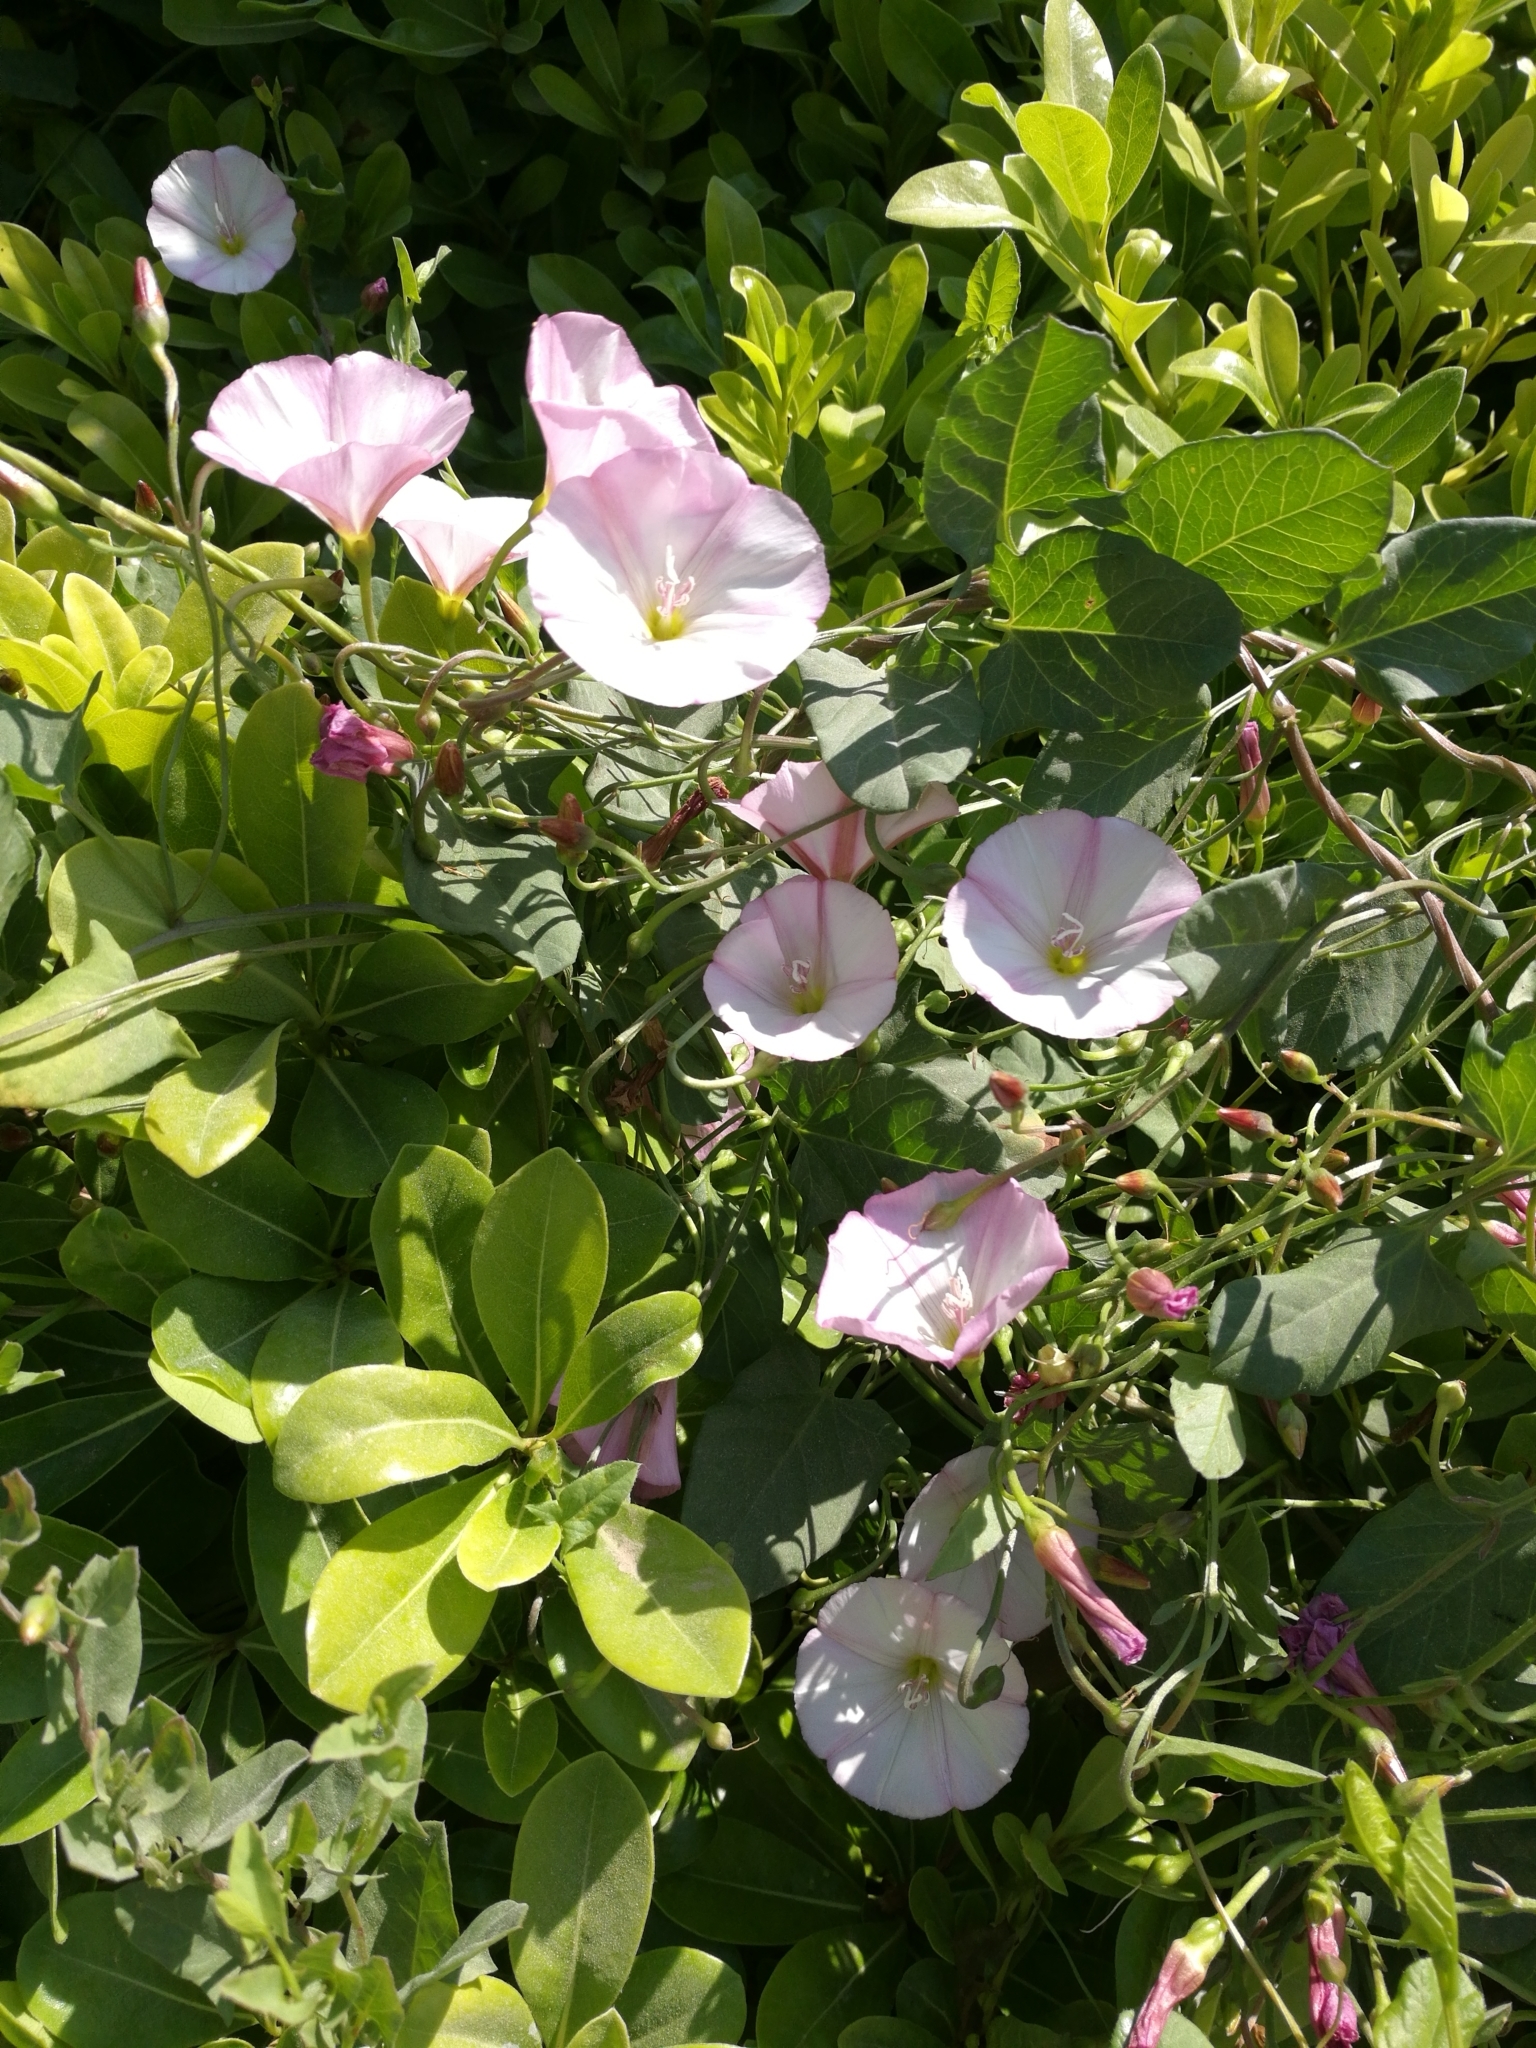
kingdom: Plantae
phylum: Tracheophyta
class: Magnoliopsida
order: Solanales
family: Convolvulaceae
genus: Convolvulus
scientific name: Convolvulus arvensis
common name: Field bindweed
